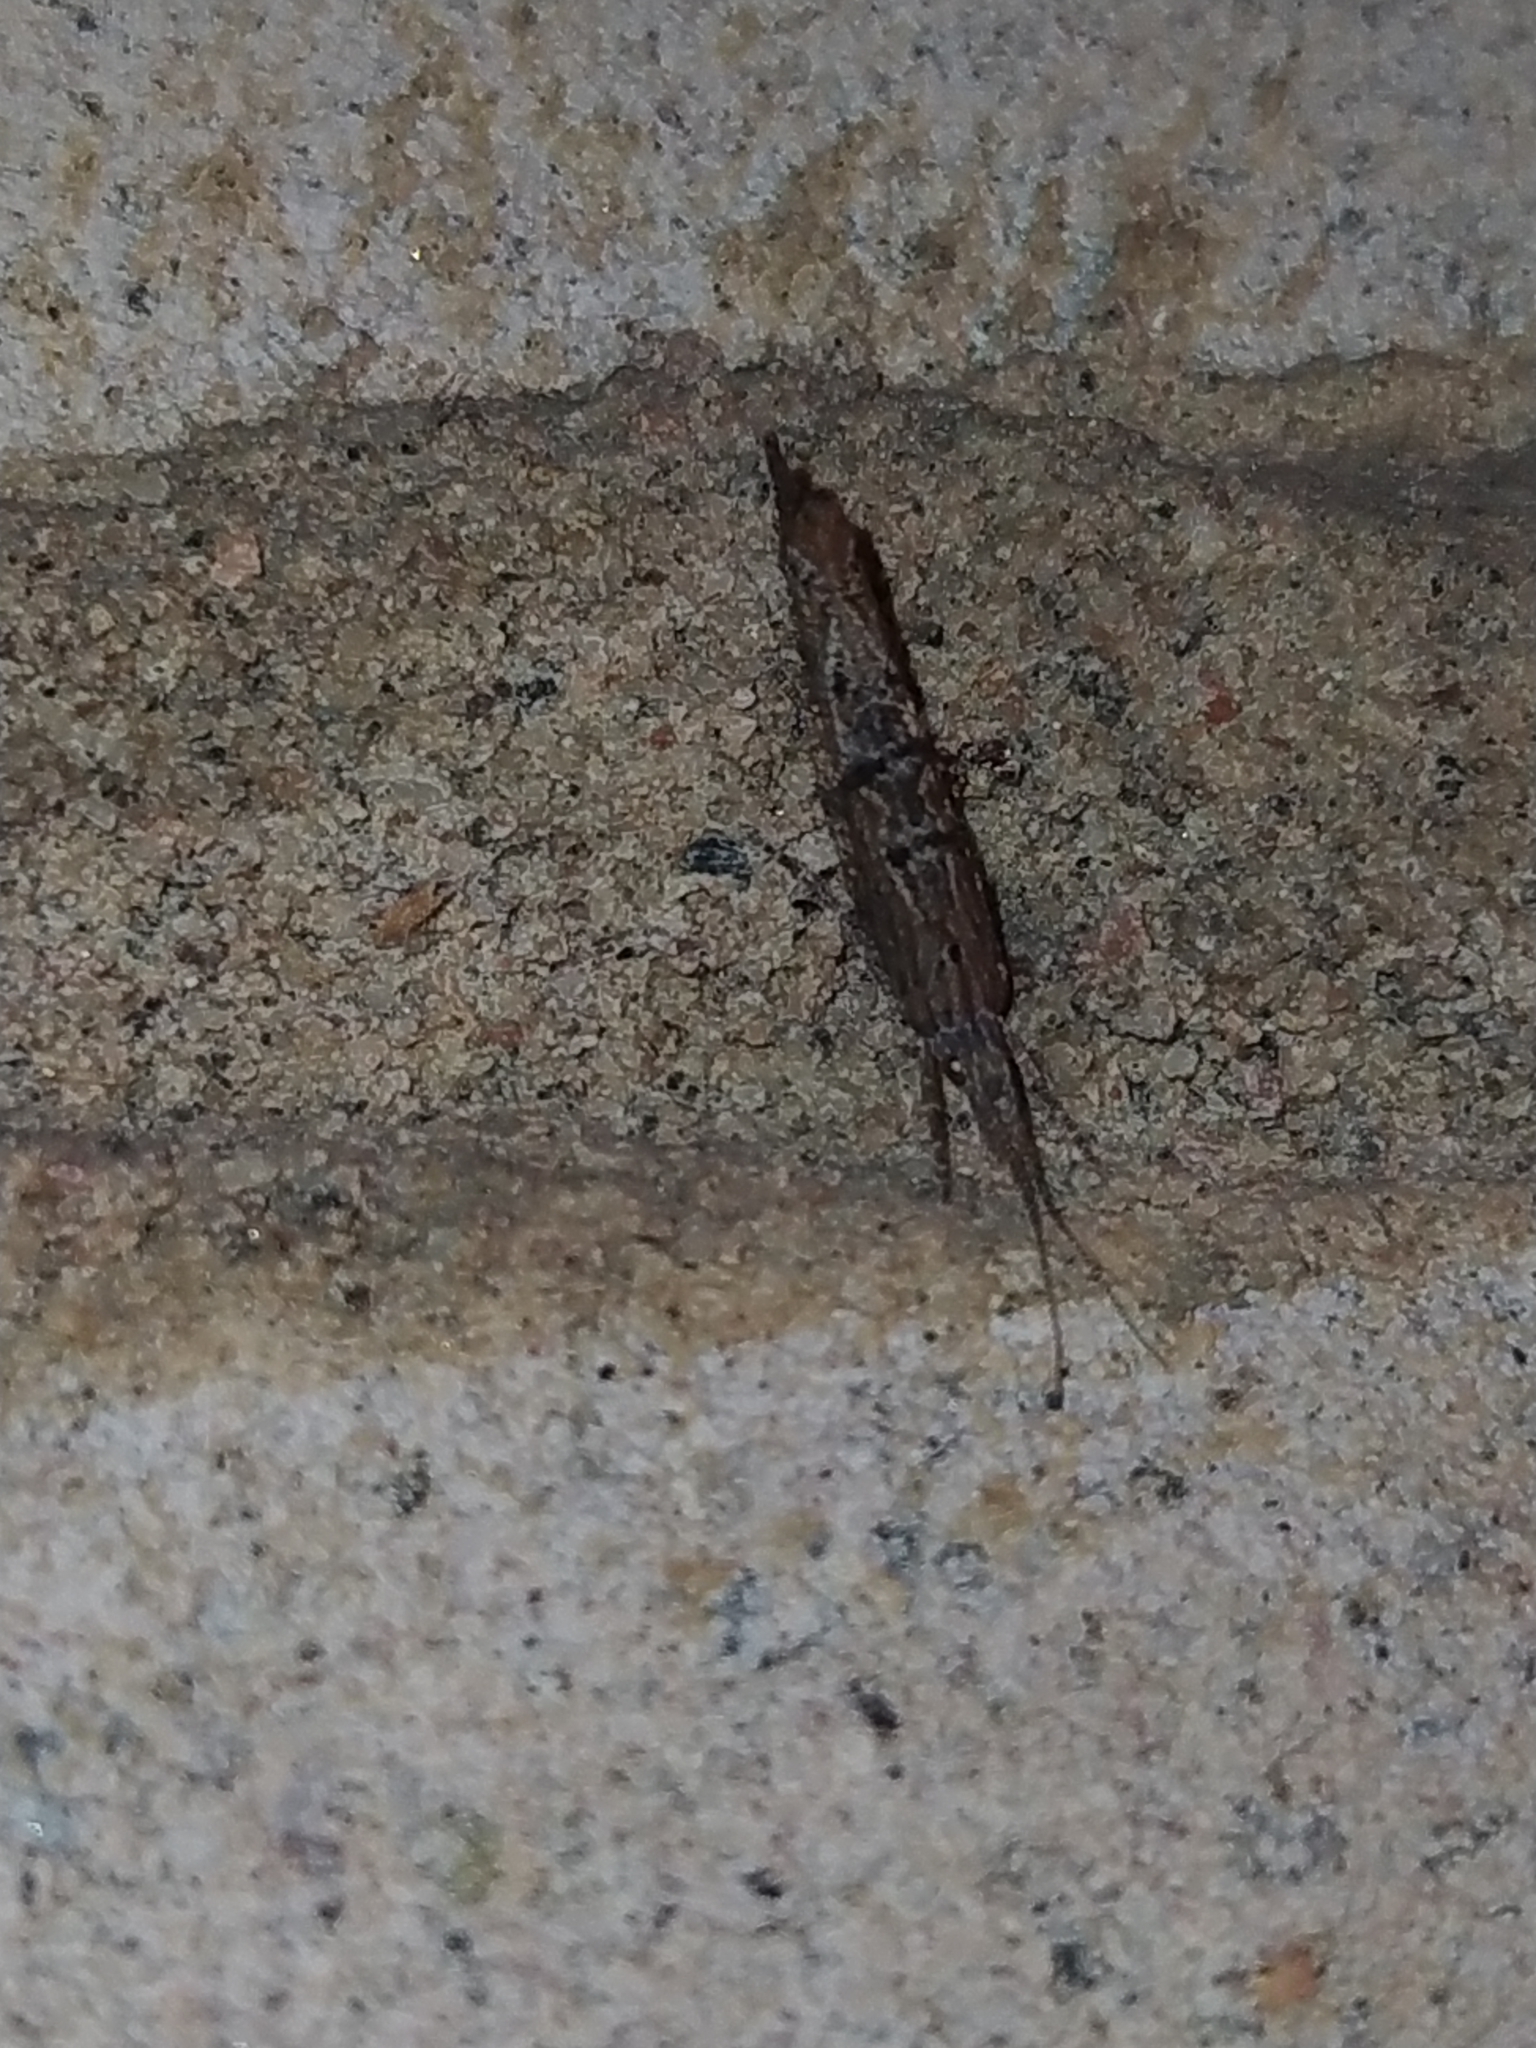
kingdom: Animalia
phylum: Arthropoda
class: Insecta
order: Lepidoptera
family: Ypsolophidae
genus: Ypsolopha
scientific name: Ypsolopha horridella
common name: Dark smudge
